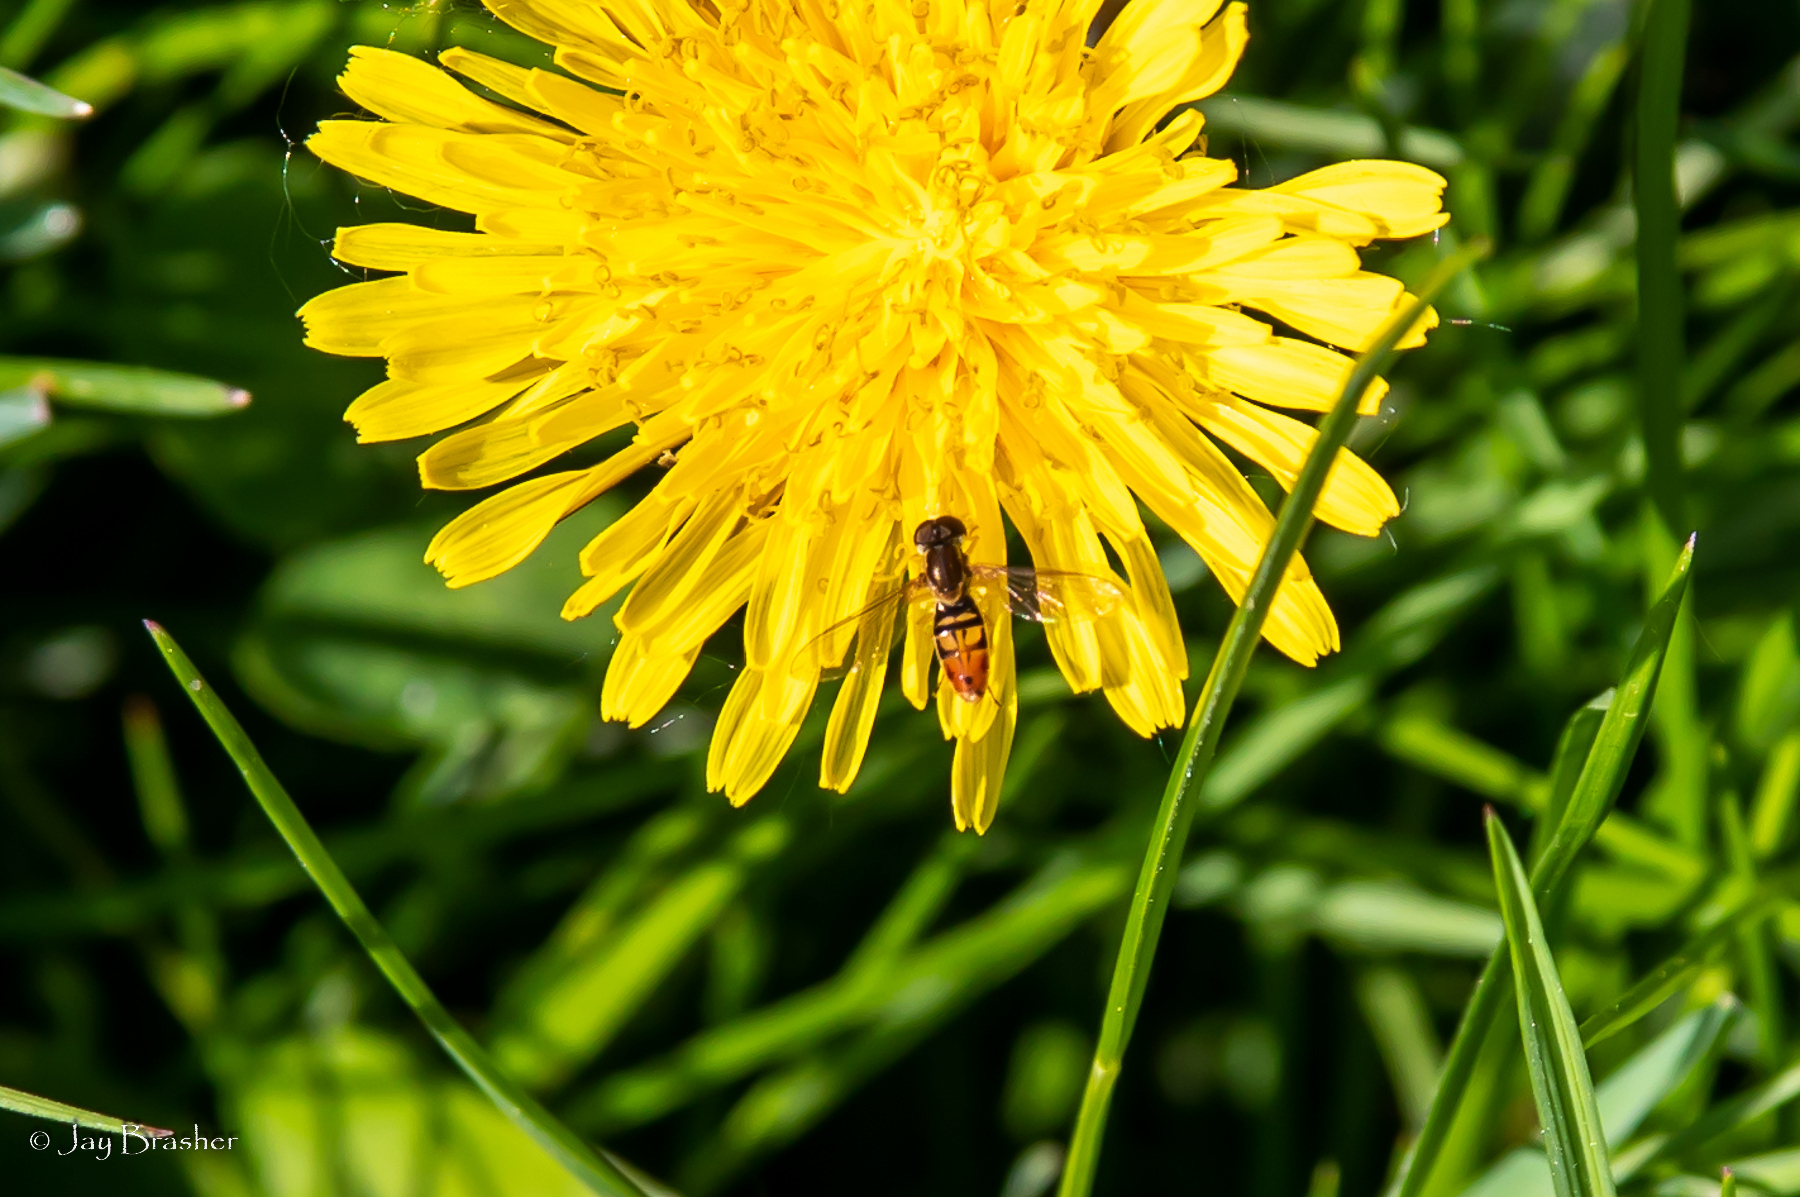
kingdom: Animalia
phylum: Arthropoda
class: Insecta
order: Diptera
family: Syrphidae
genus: Toxomerus
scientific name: Toxomerus marginatus
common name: Syrphid fly
